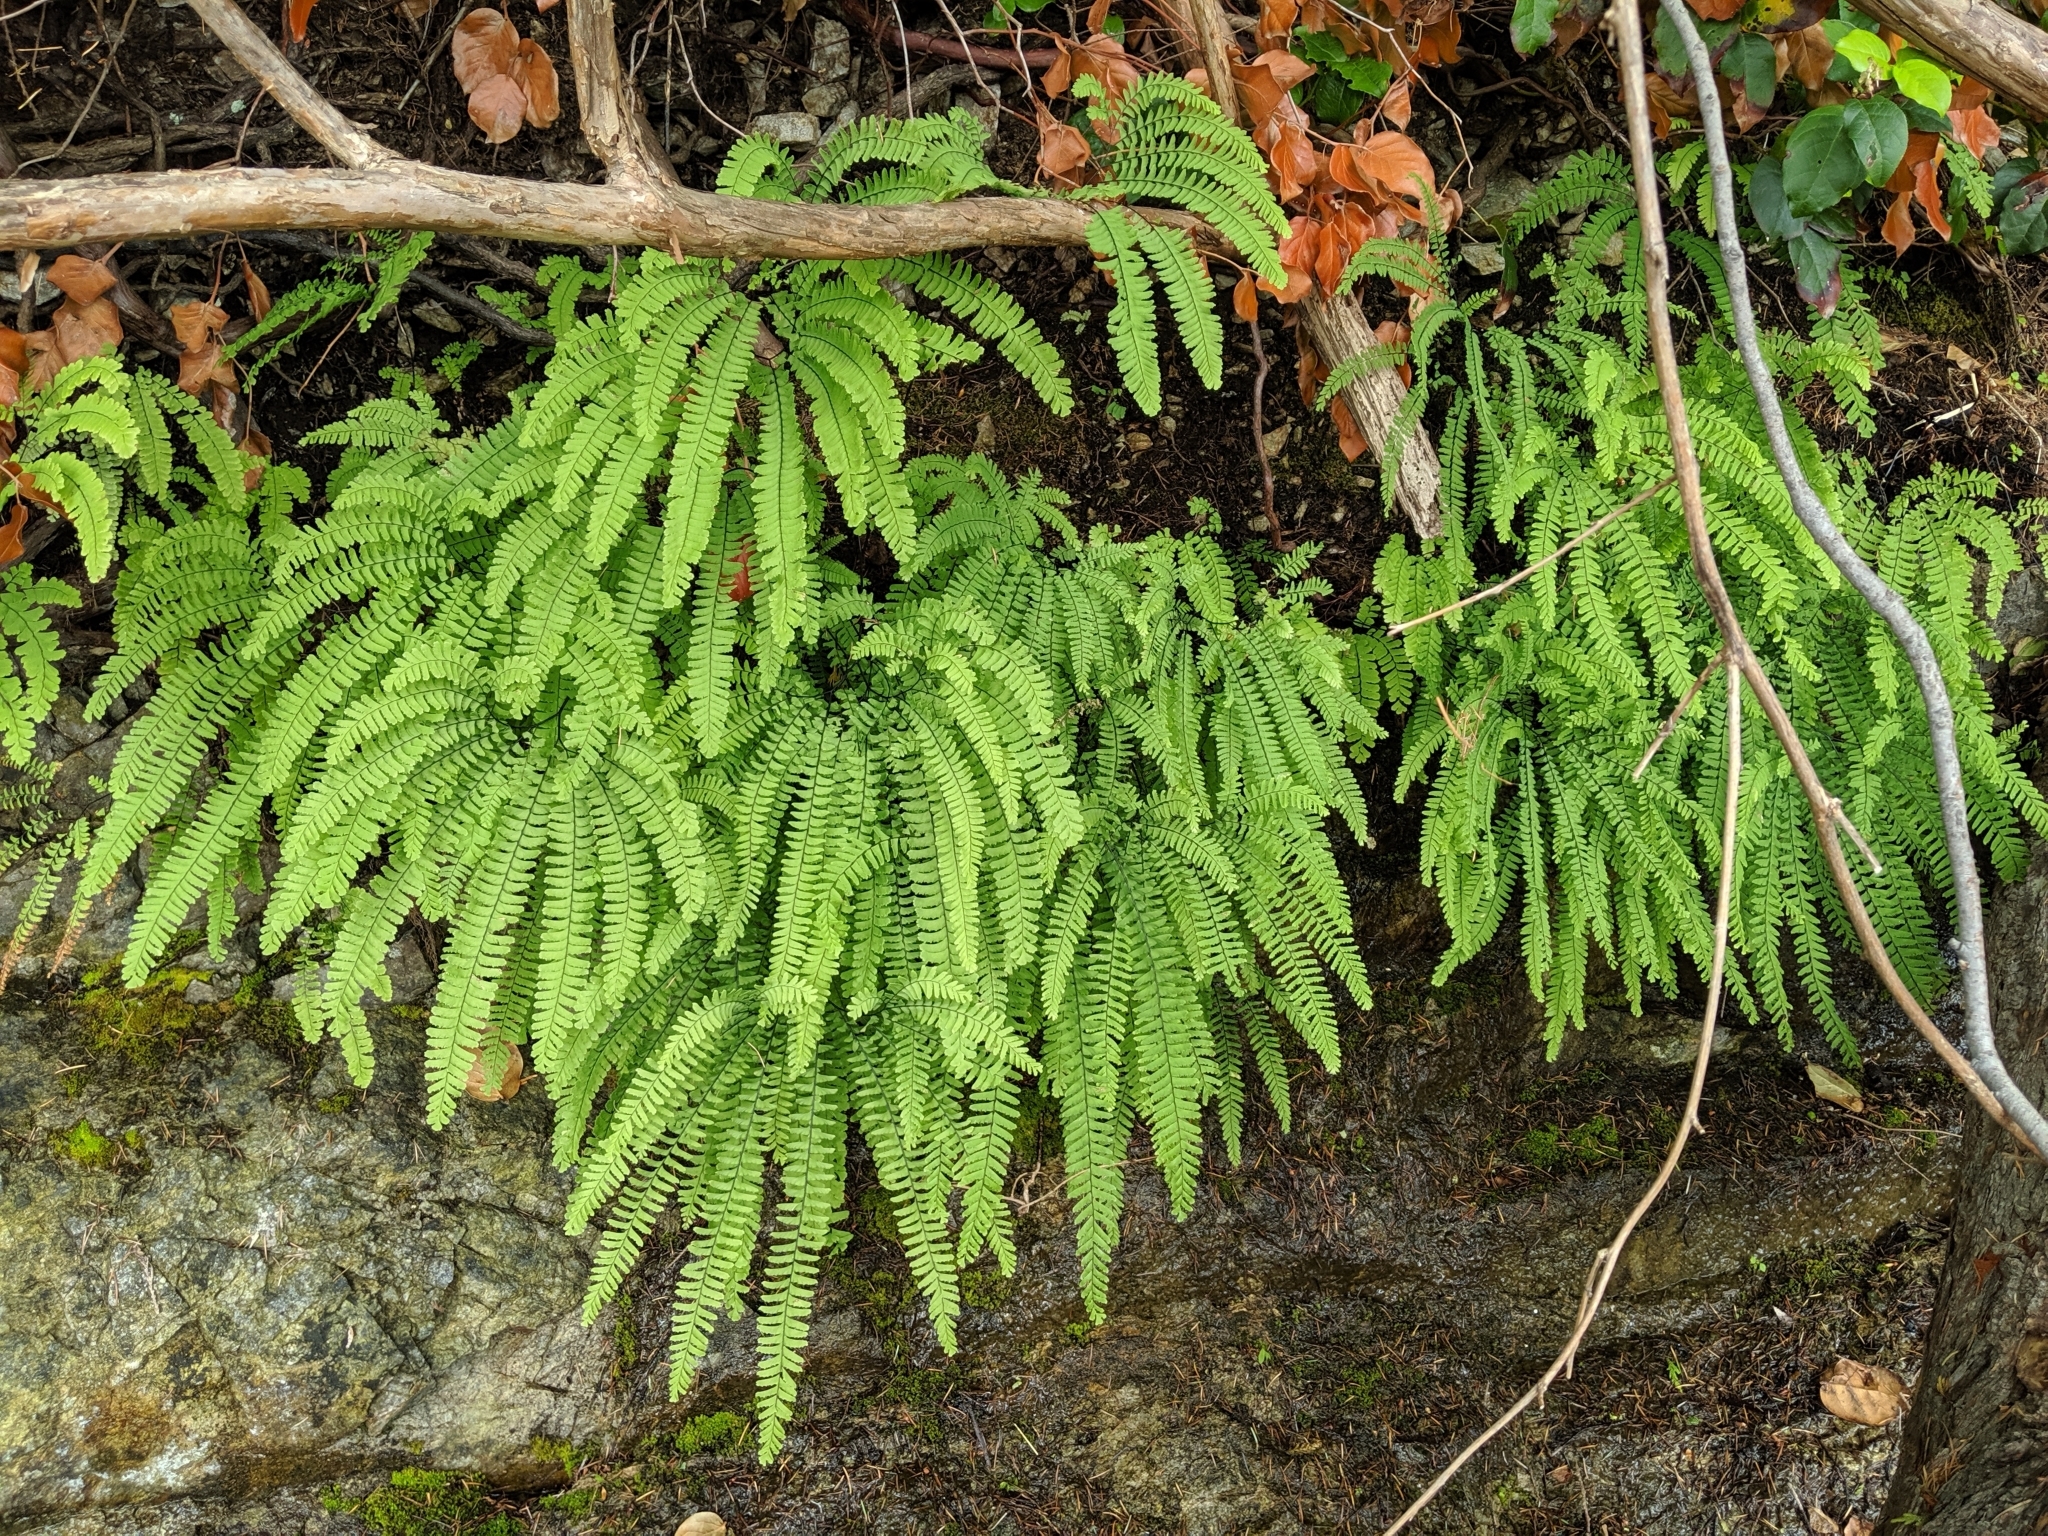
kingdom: Plantae
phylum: Tracheophyta
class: Polypodiopsida
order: Polypodiales
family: Pteridaceae
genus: Adiantum
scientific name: Adiantum aleuticum
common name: Aleutian maidenhair fern
